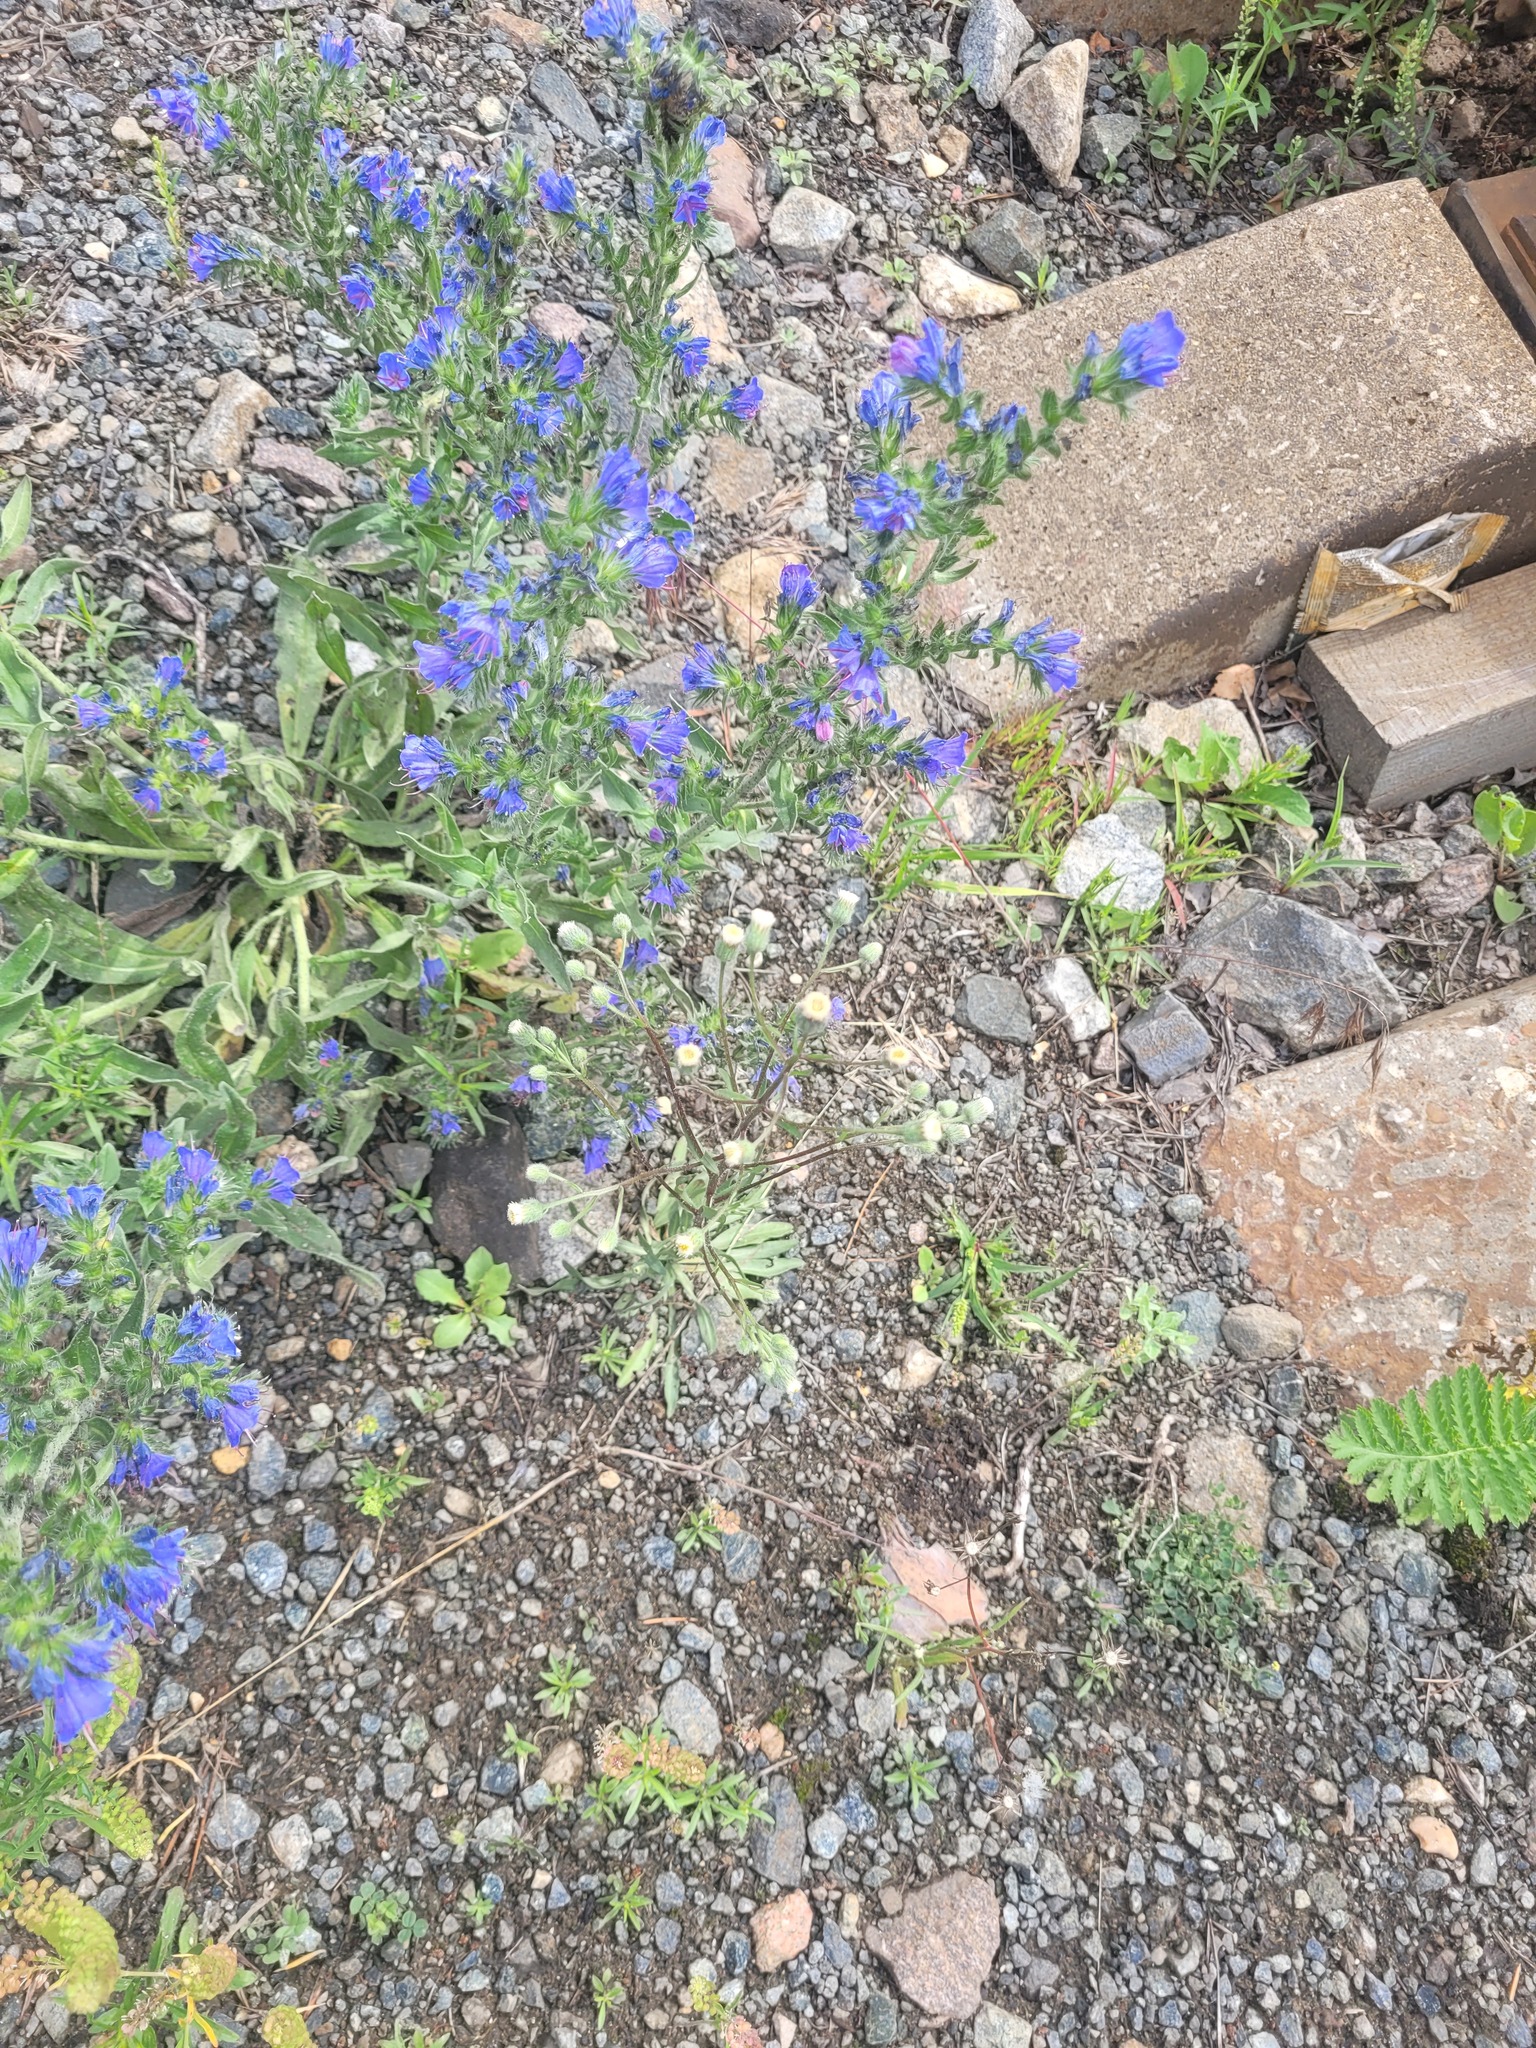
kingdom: Plantae
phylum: Tracheophyta
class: Magnoliopsida
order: Asterales
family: Asteraceae
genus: Erigeron
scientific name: Erigeron acris
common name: Blue fleabane
